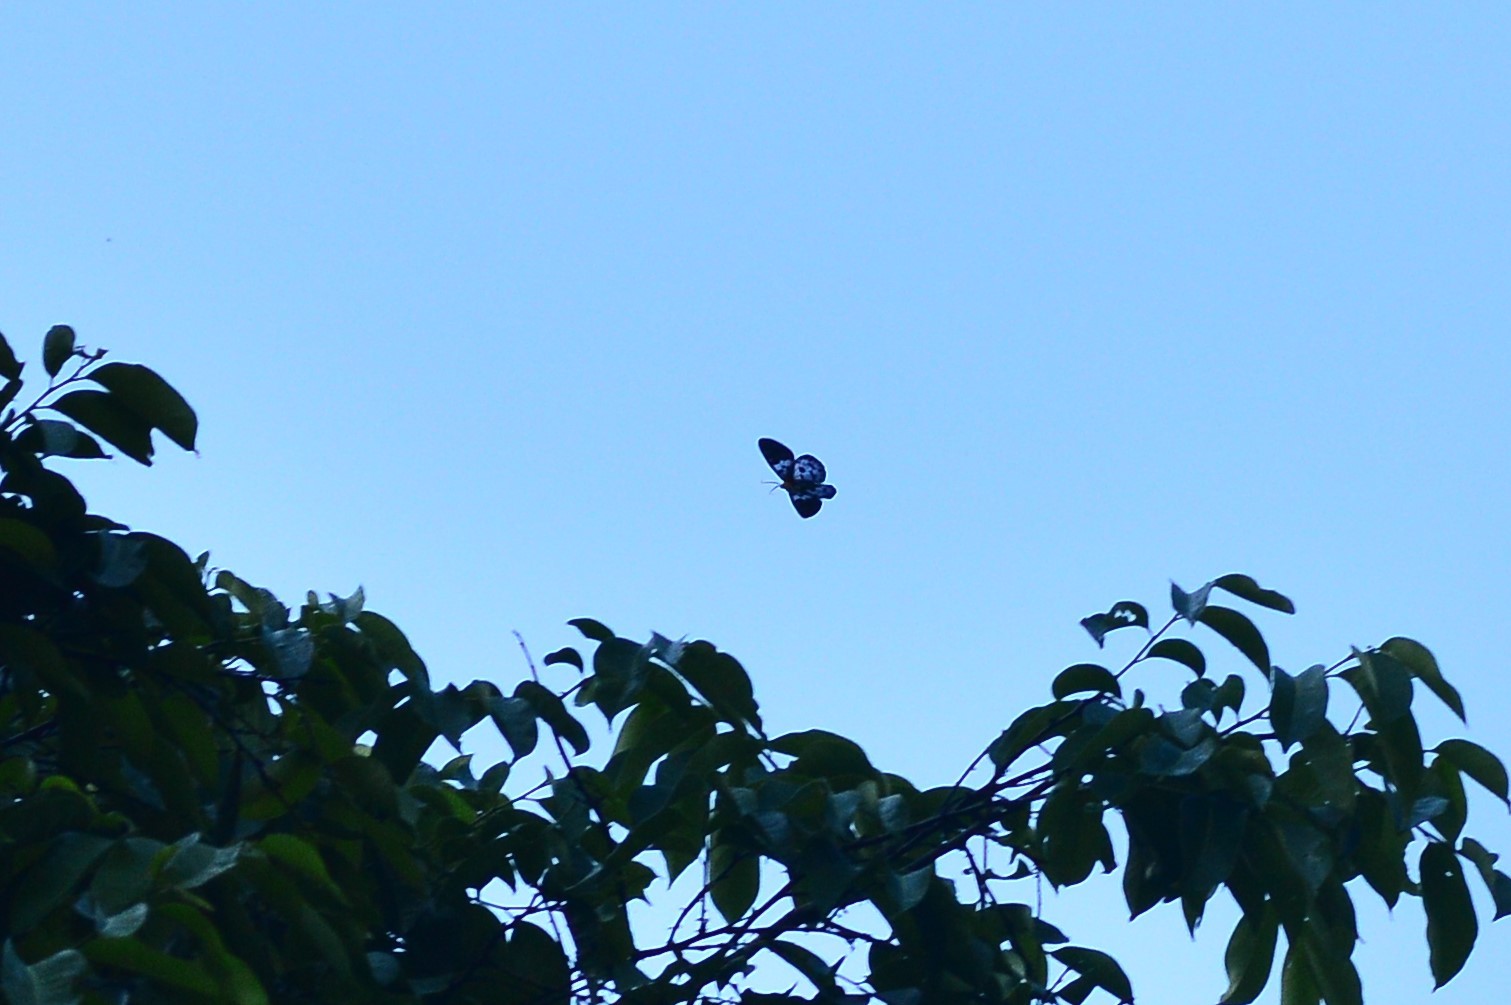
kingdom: Animalia
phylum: Arthropoda
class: Insecta
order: Lepidoptera
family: Geometridae
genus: Dysphania
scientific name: Dysphania percota
